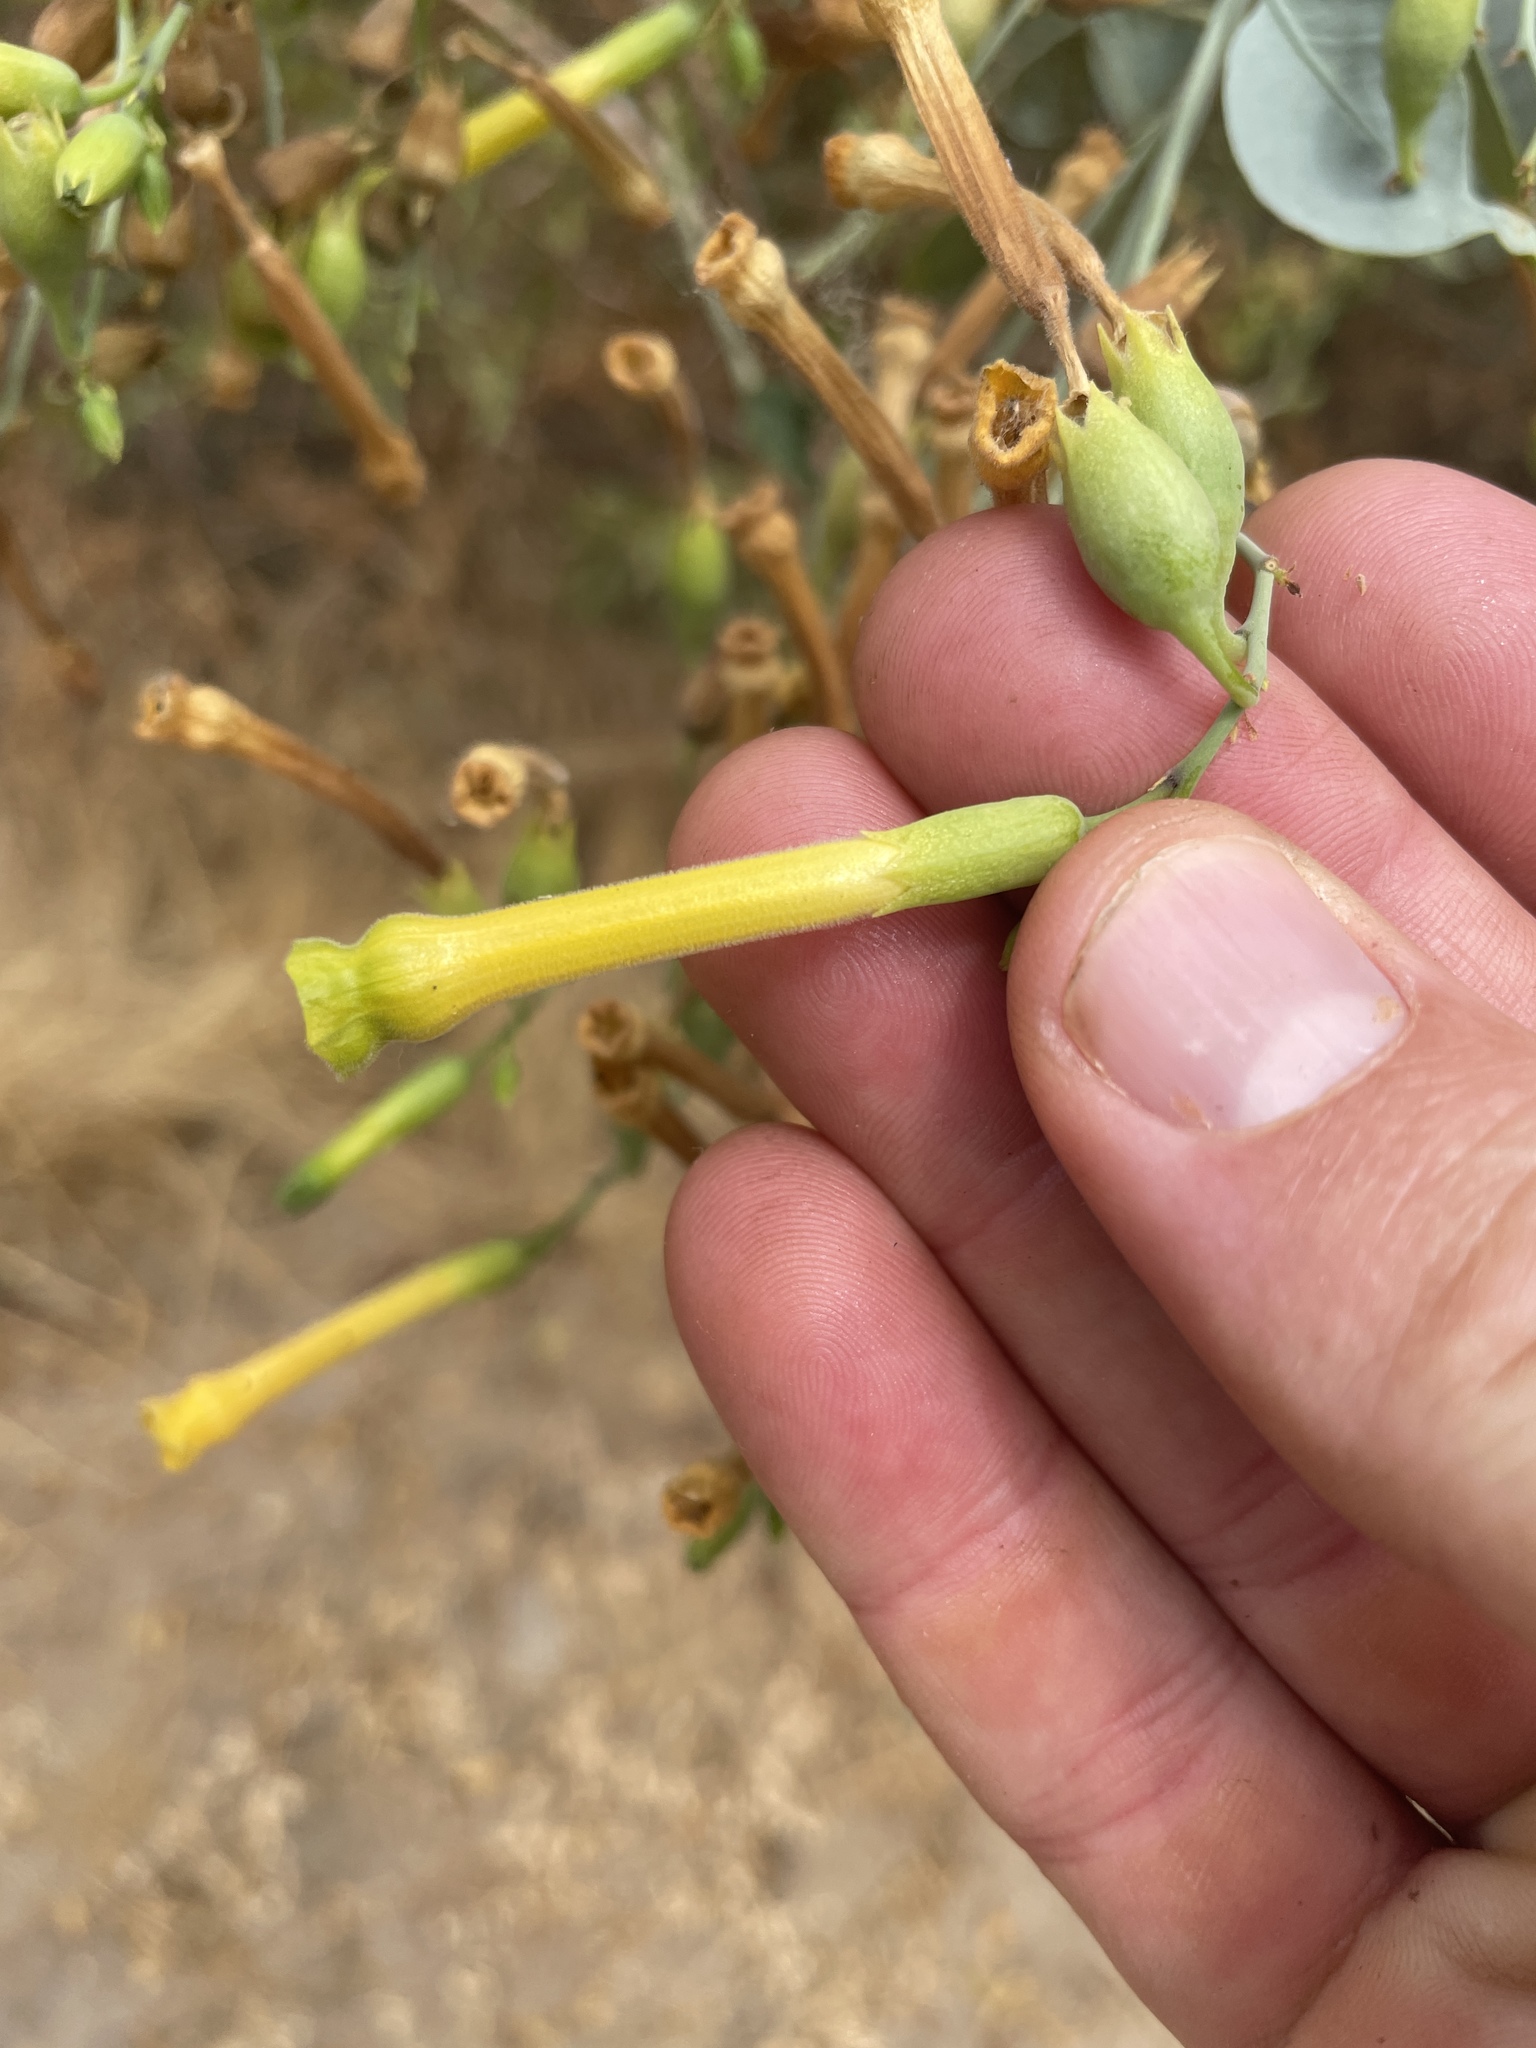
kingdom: Plantae
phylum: Tracheophyta
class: Magnoliopsida
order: Solanales
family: Solanaceae
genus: Nicotiana
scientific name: Nicotiana glauca
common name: Tree tobacco
